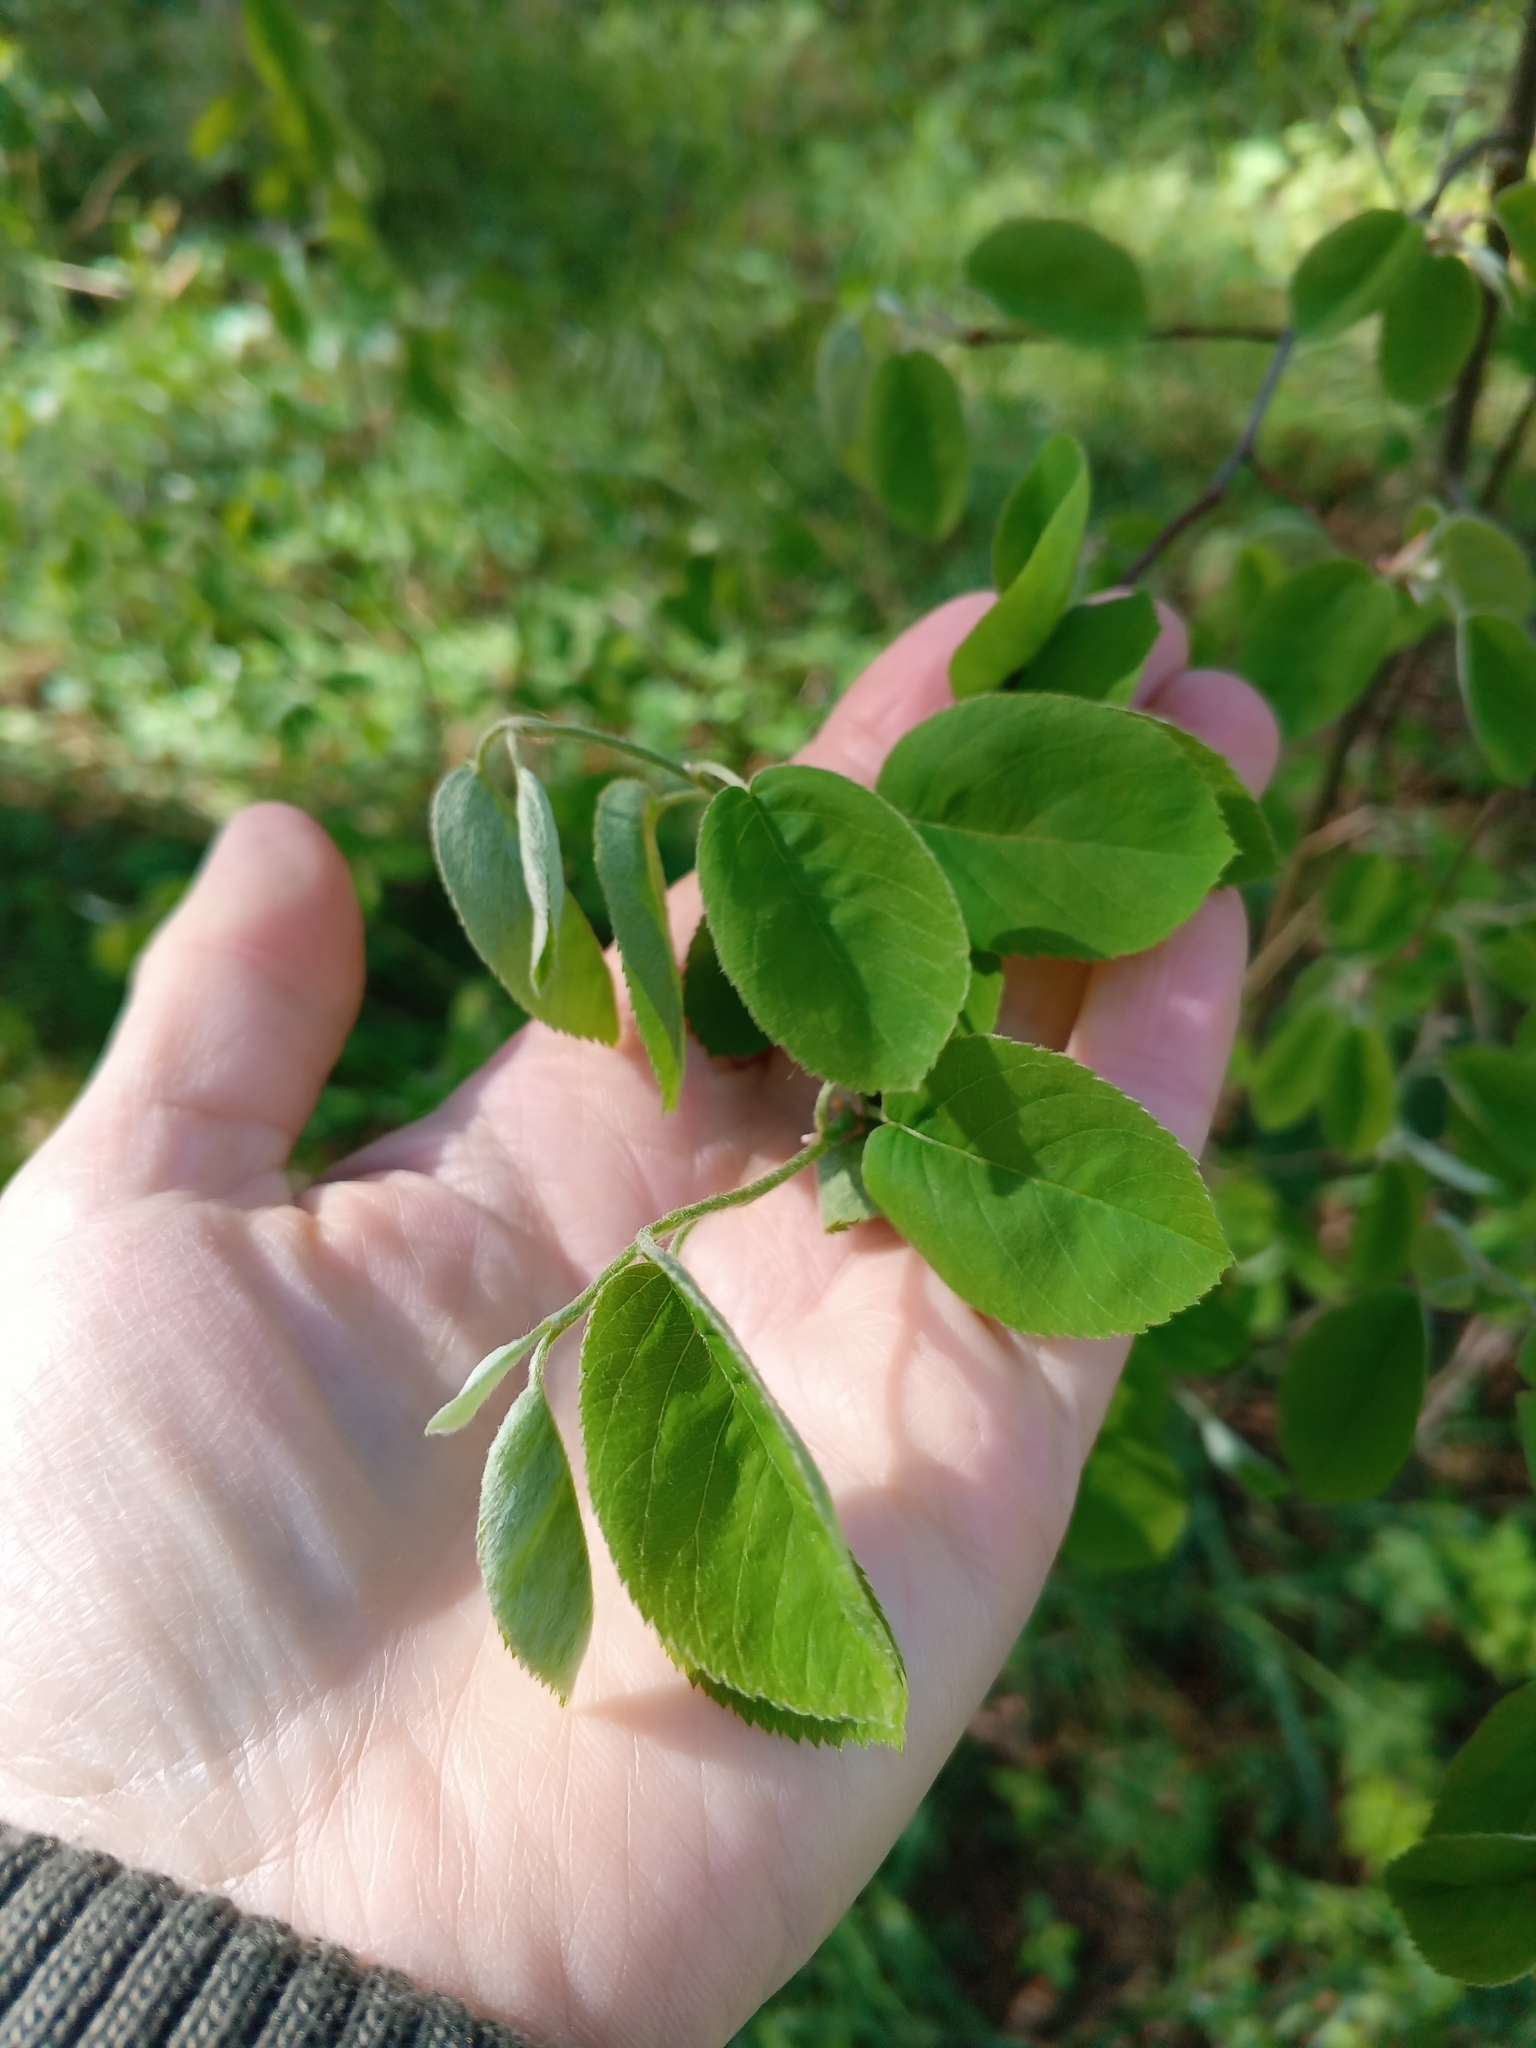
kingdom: Plantae
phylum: Tracheophyta
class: Magnoliopsida
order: Rosales
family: Rosaceae
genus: Amelanchier
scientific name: Amelanchier
